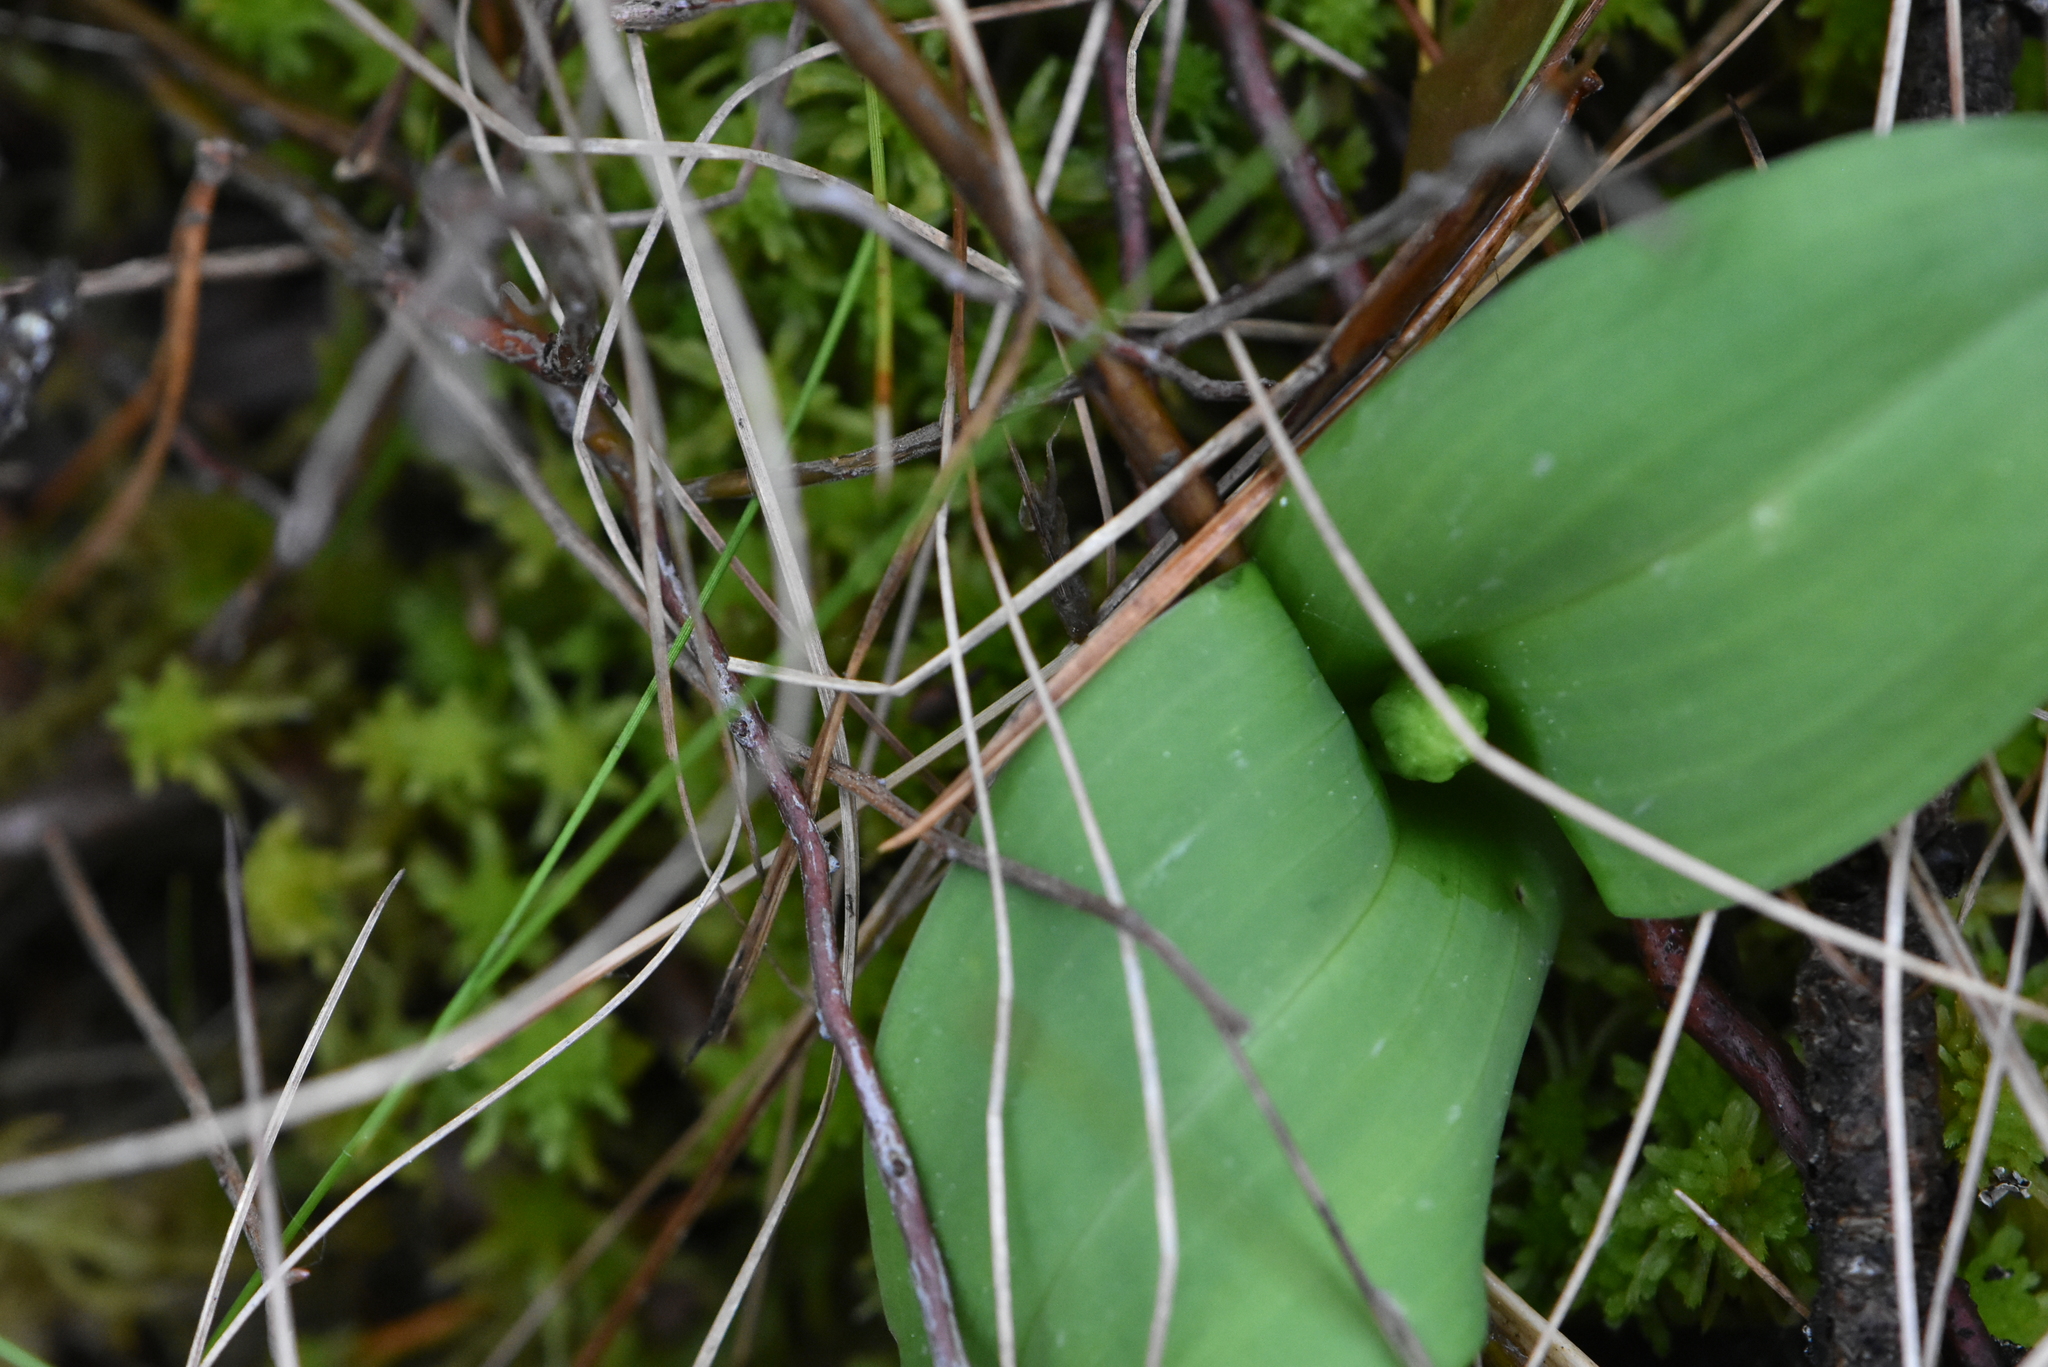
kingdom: Plantae
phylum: Tracheophyta
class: Liliopsida
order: Asparagales
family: Orchidaceae
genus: Neottia
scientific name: Neottia ovata
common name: Common twayblade
